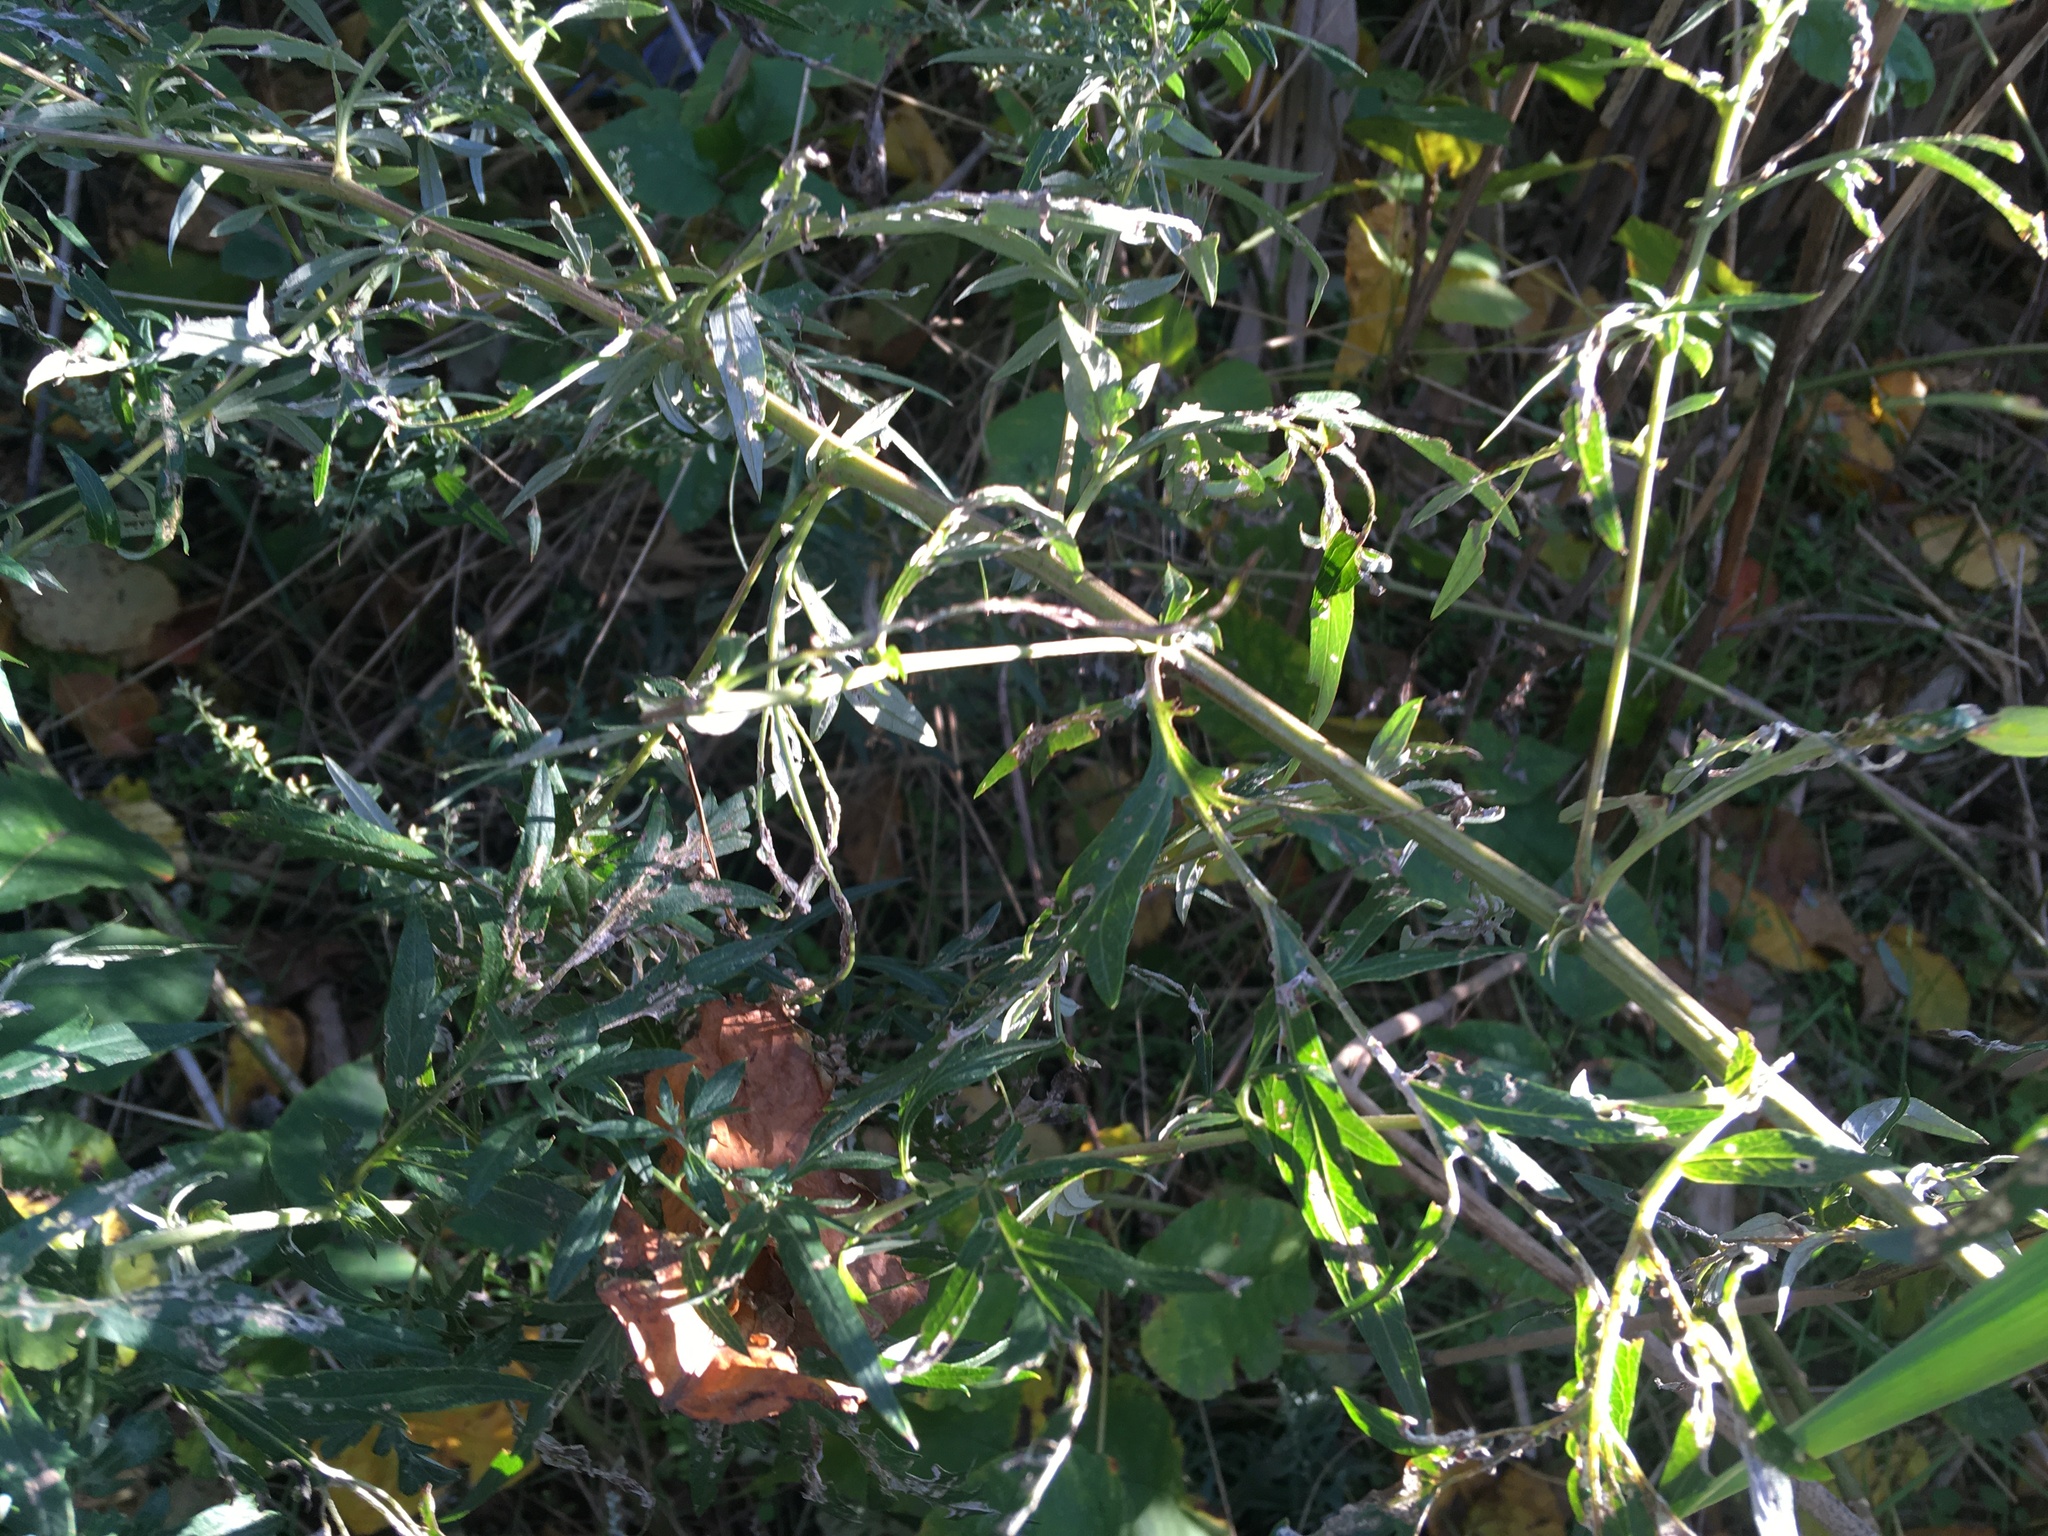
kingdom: Plantae
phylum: Tracheophyta
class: Magnoliopsida
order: Asterales
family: Asteraceae
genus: Artemisia
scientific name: Artemisia vulgaris
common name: Mugwort
